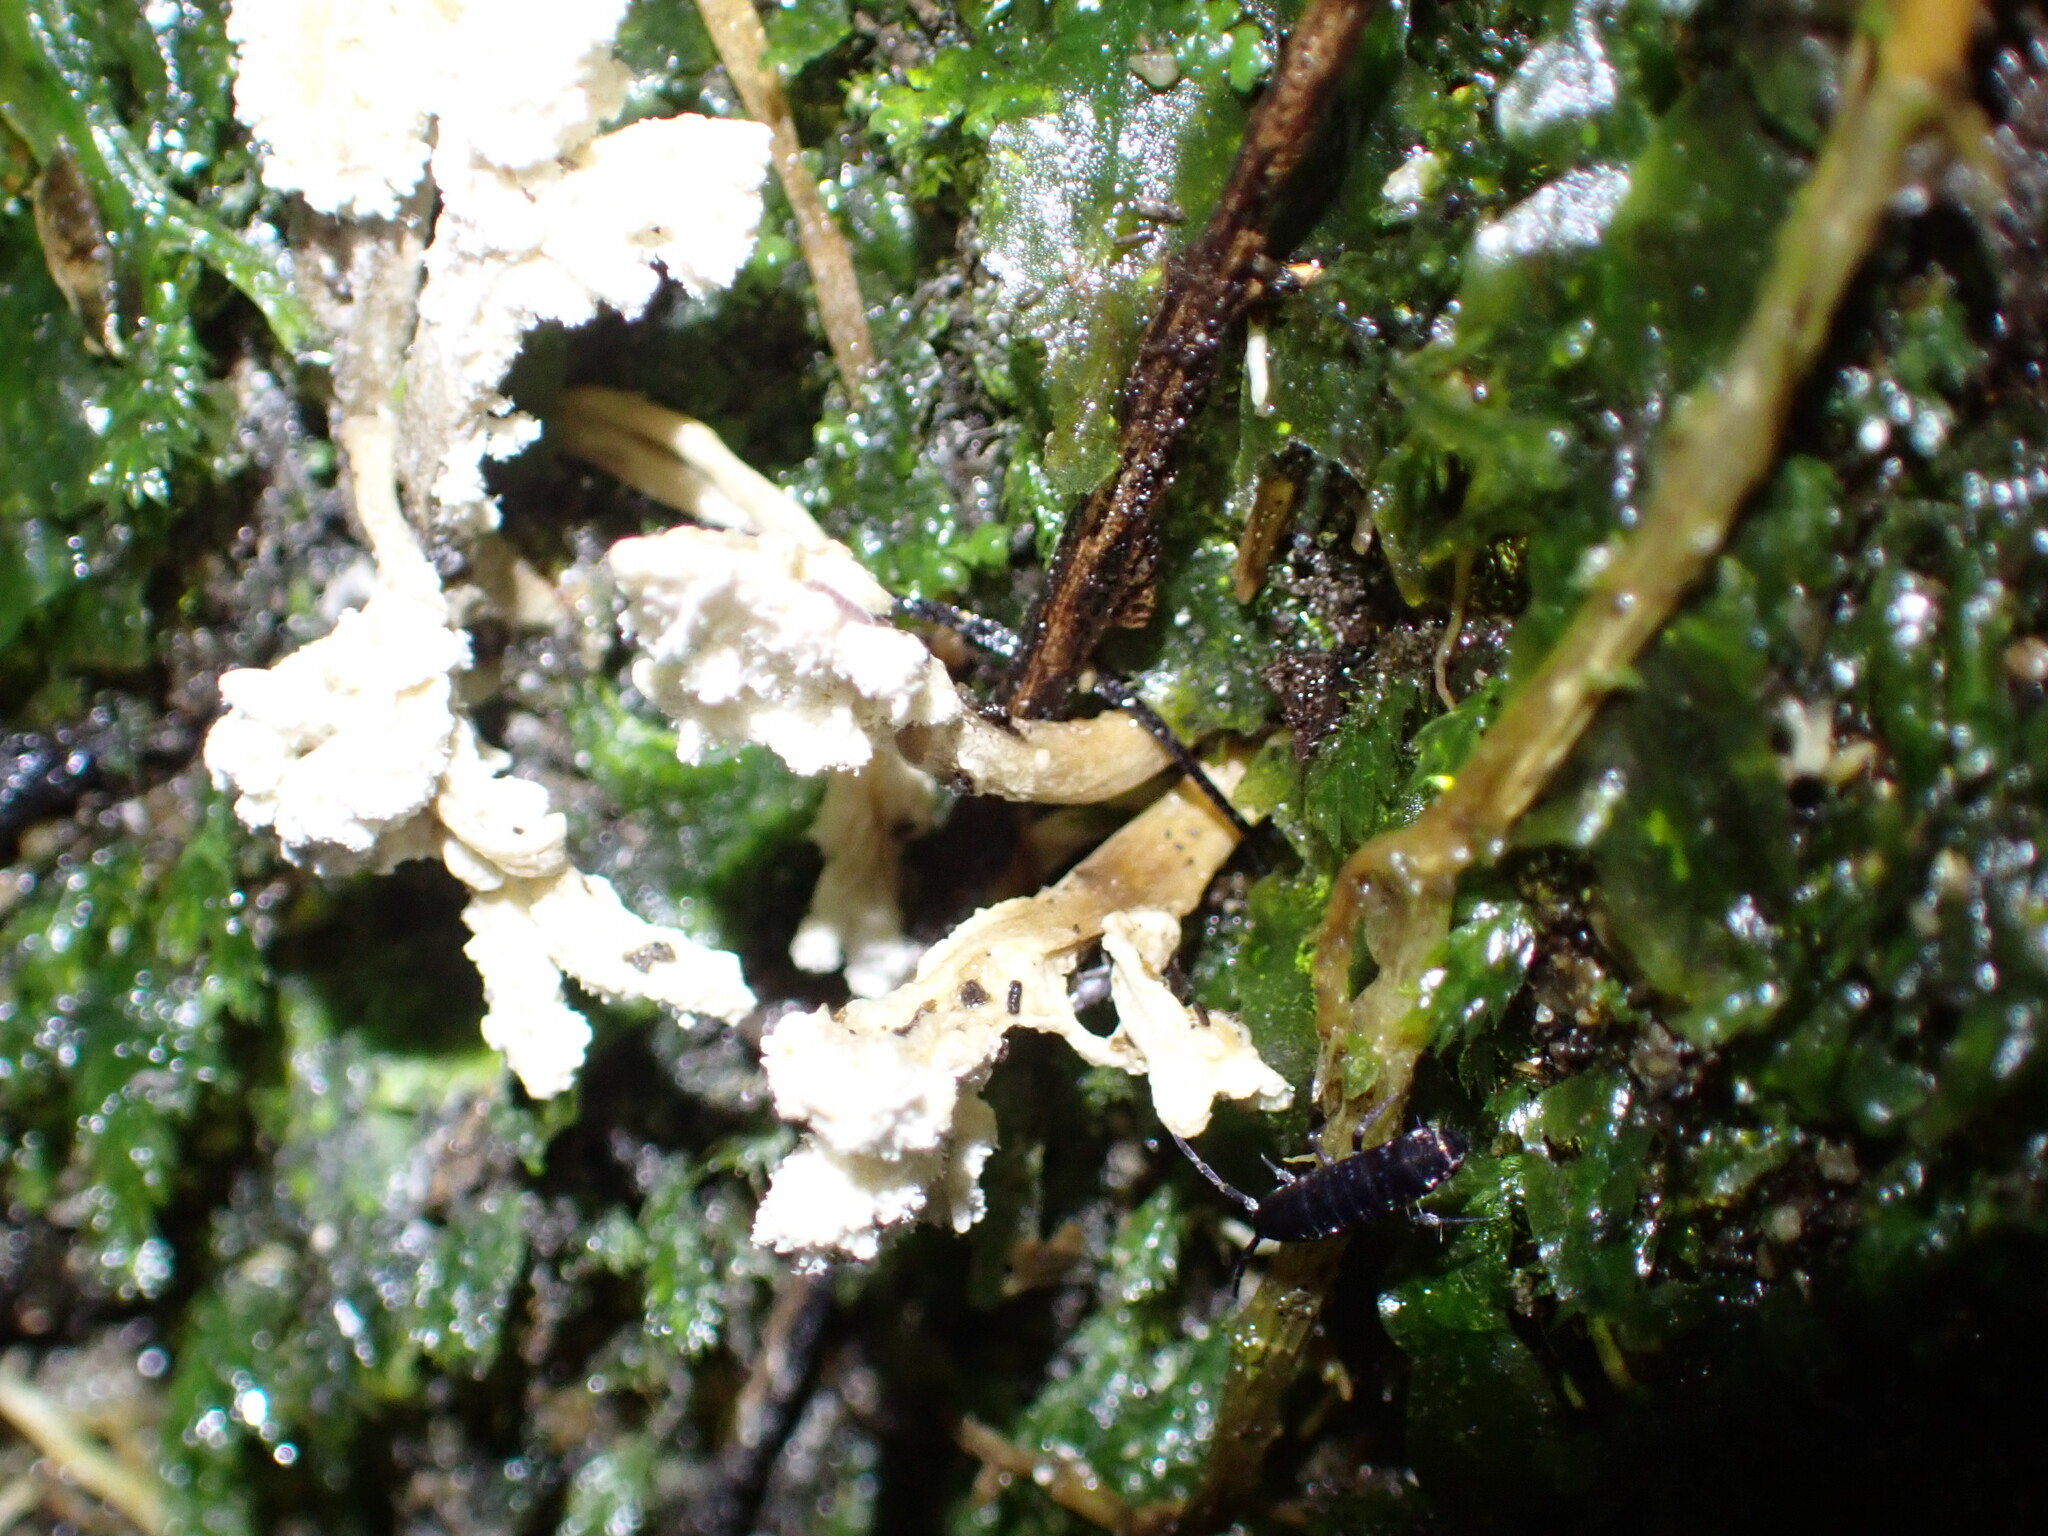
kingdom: Fungi
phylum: Ascomycota
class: Sordariomycetes
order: Hypocreales
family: Cordycipitaceae
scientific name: Cordycipitaceae
